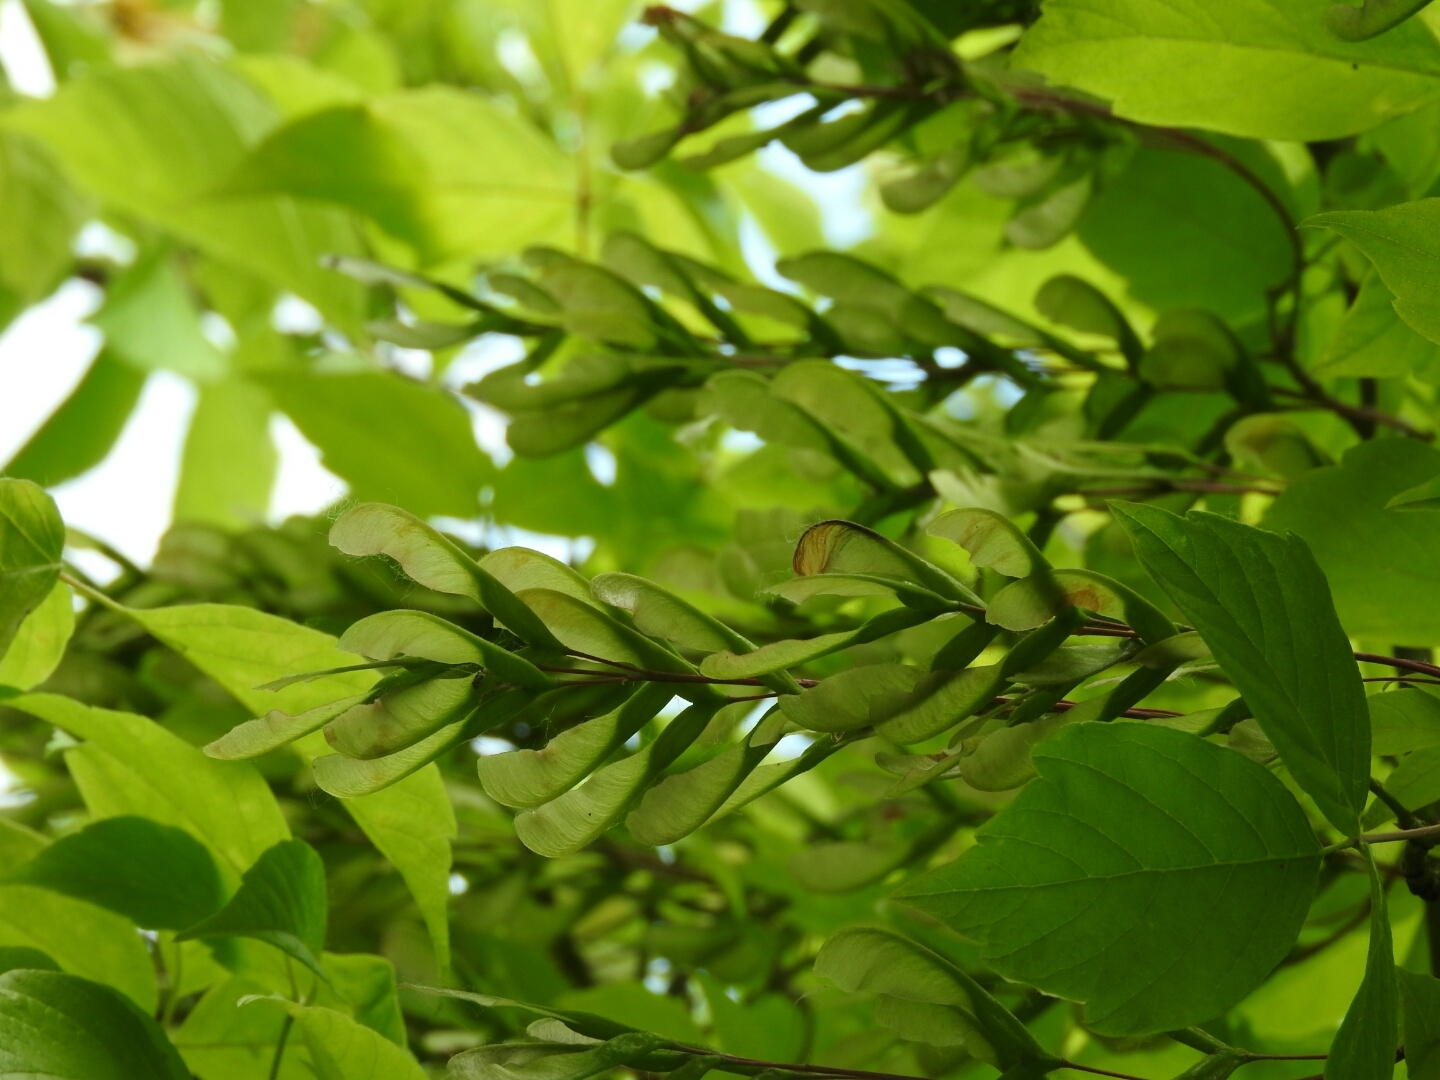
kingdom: Plantae
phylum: Tracheophyta
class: Magnoliopsida
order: Sapindales
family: Sapindaceae
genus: Acer
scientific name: Acer negundo
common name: Ashleaf maple
